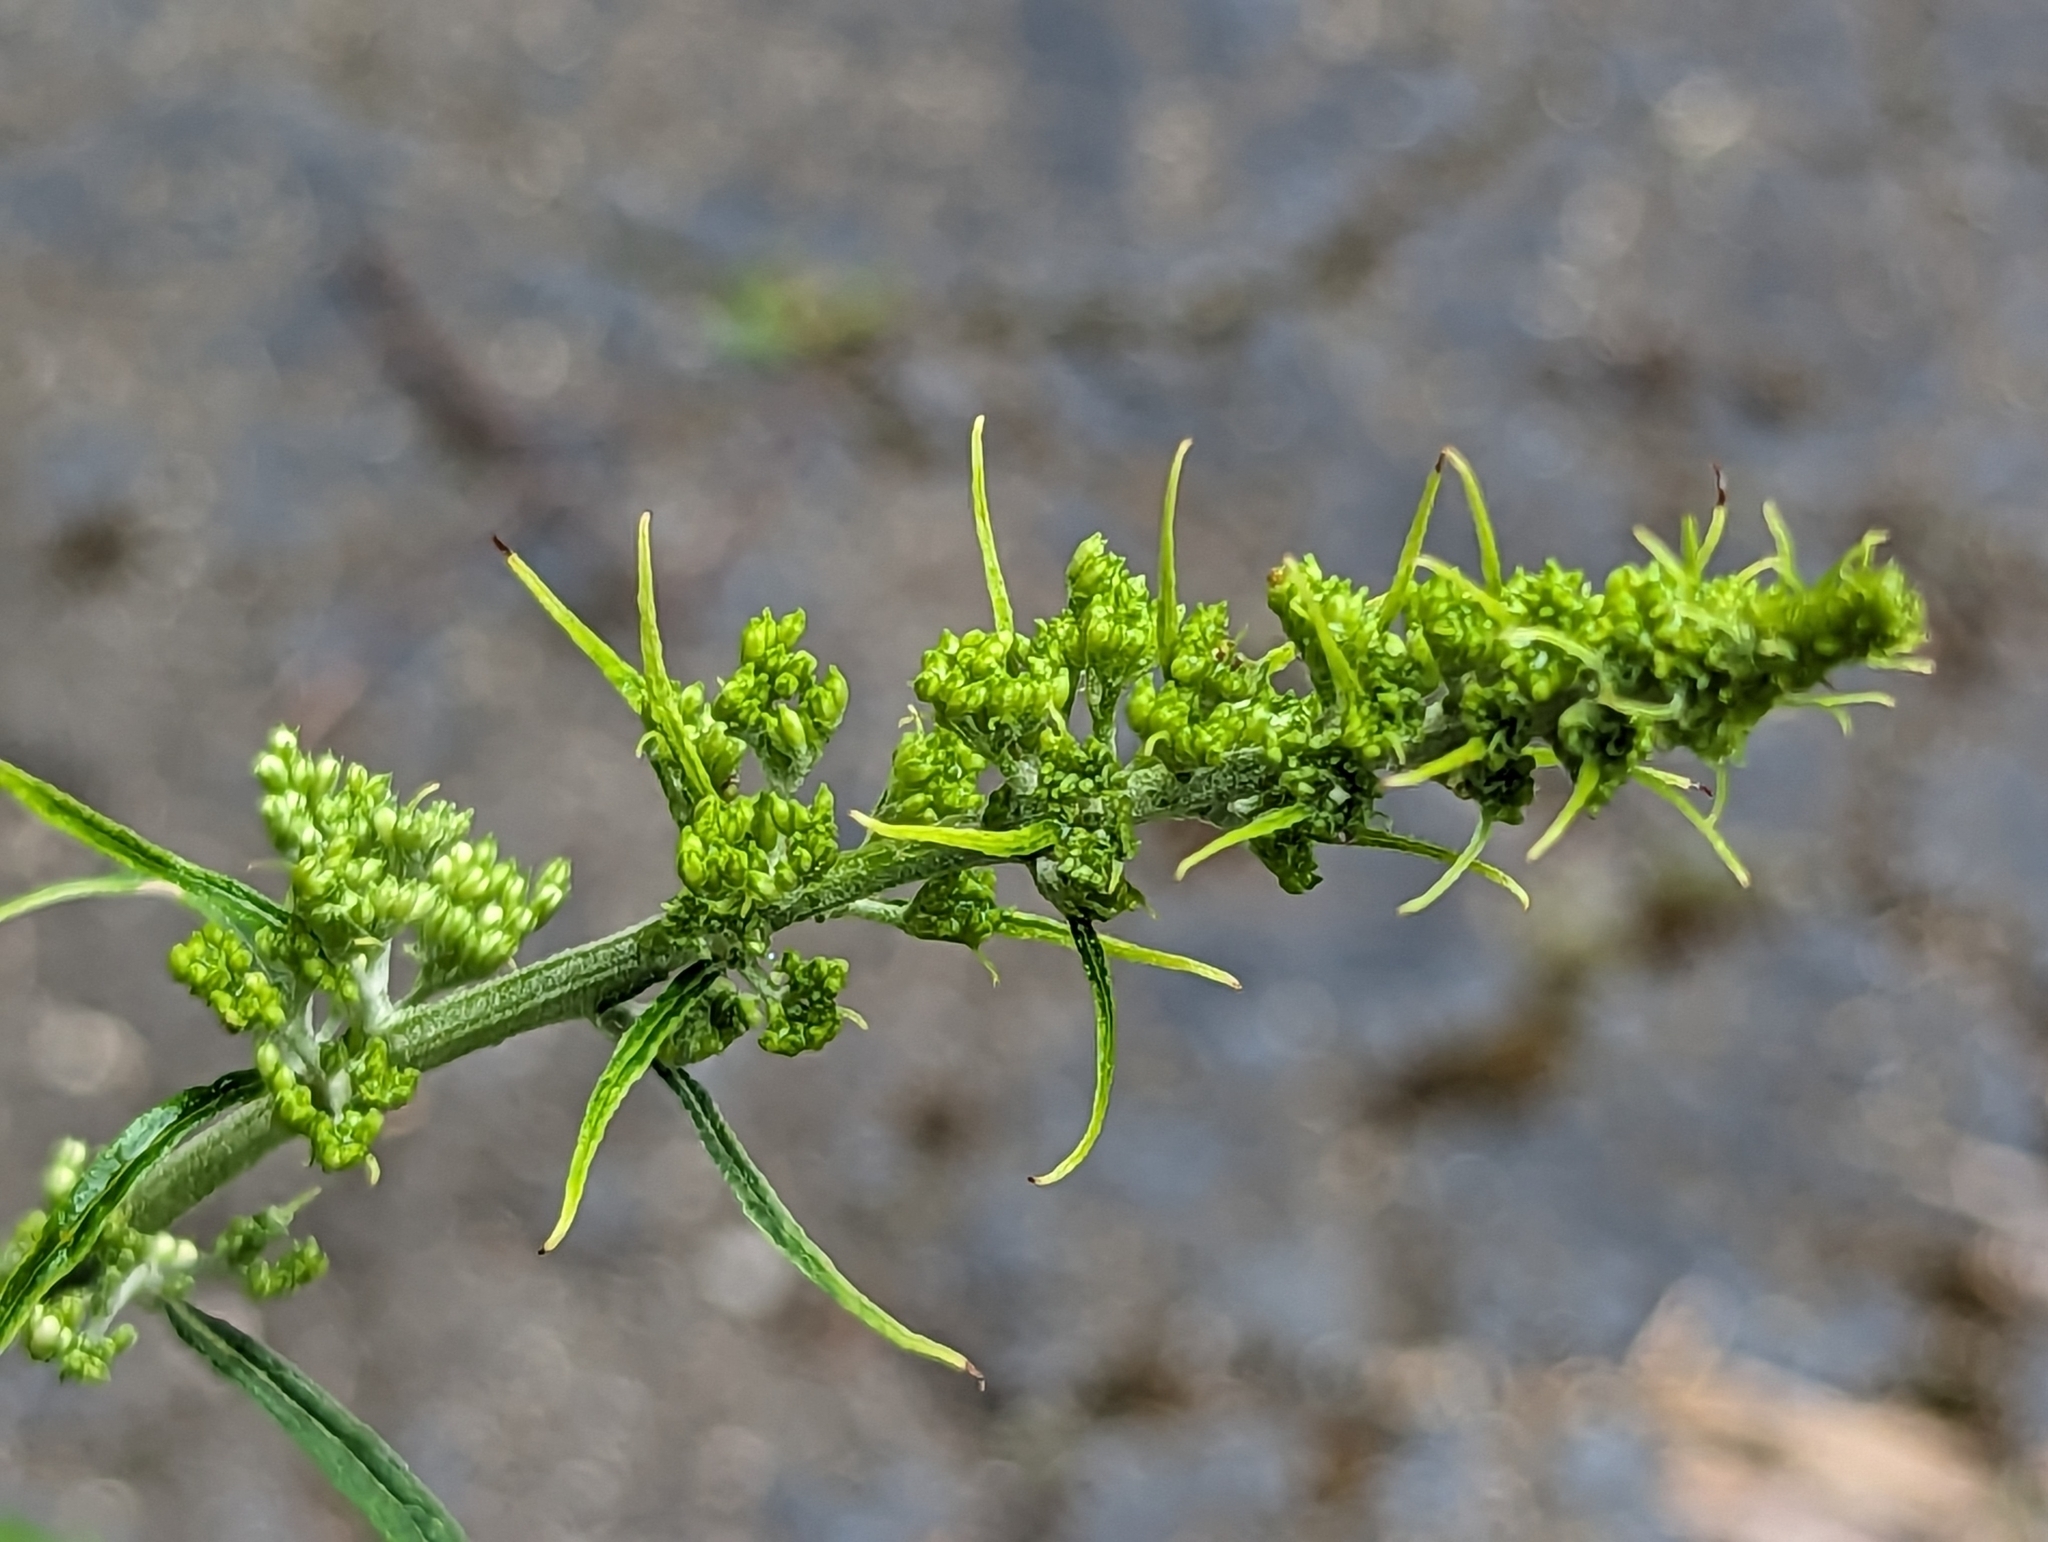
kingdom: Plantae
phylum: Tracheophyta
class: Magnoliopsida
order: Lamiales
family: Scrophulariaceae
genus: Buddleja
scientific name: Buddleja davidii
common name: Butterfly-bush
